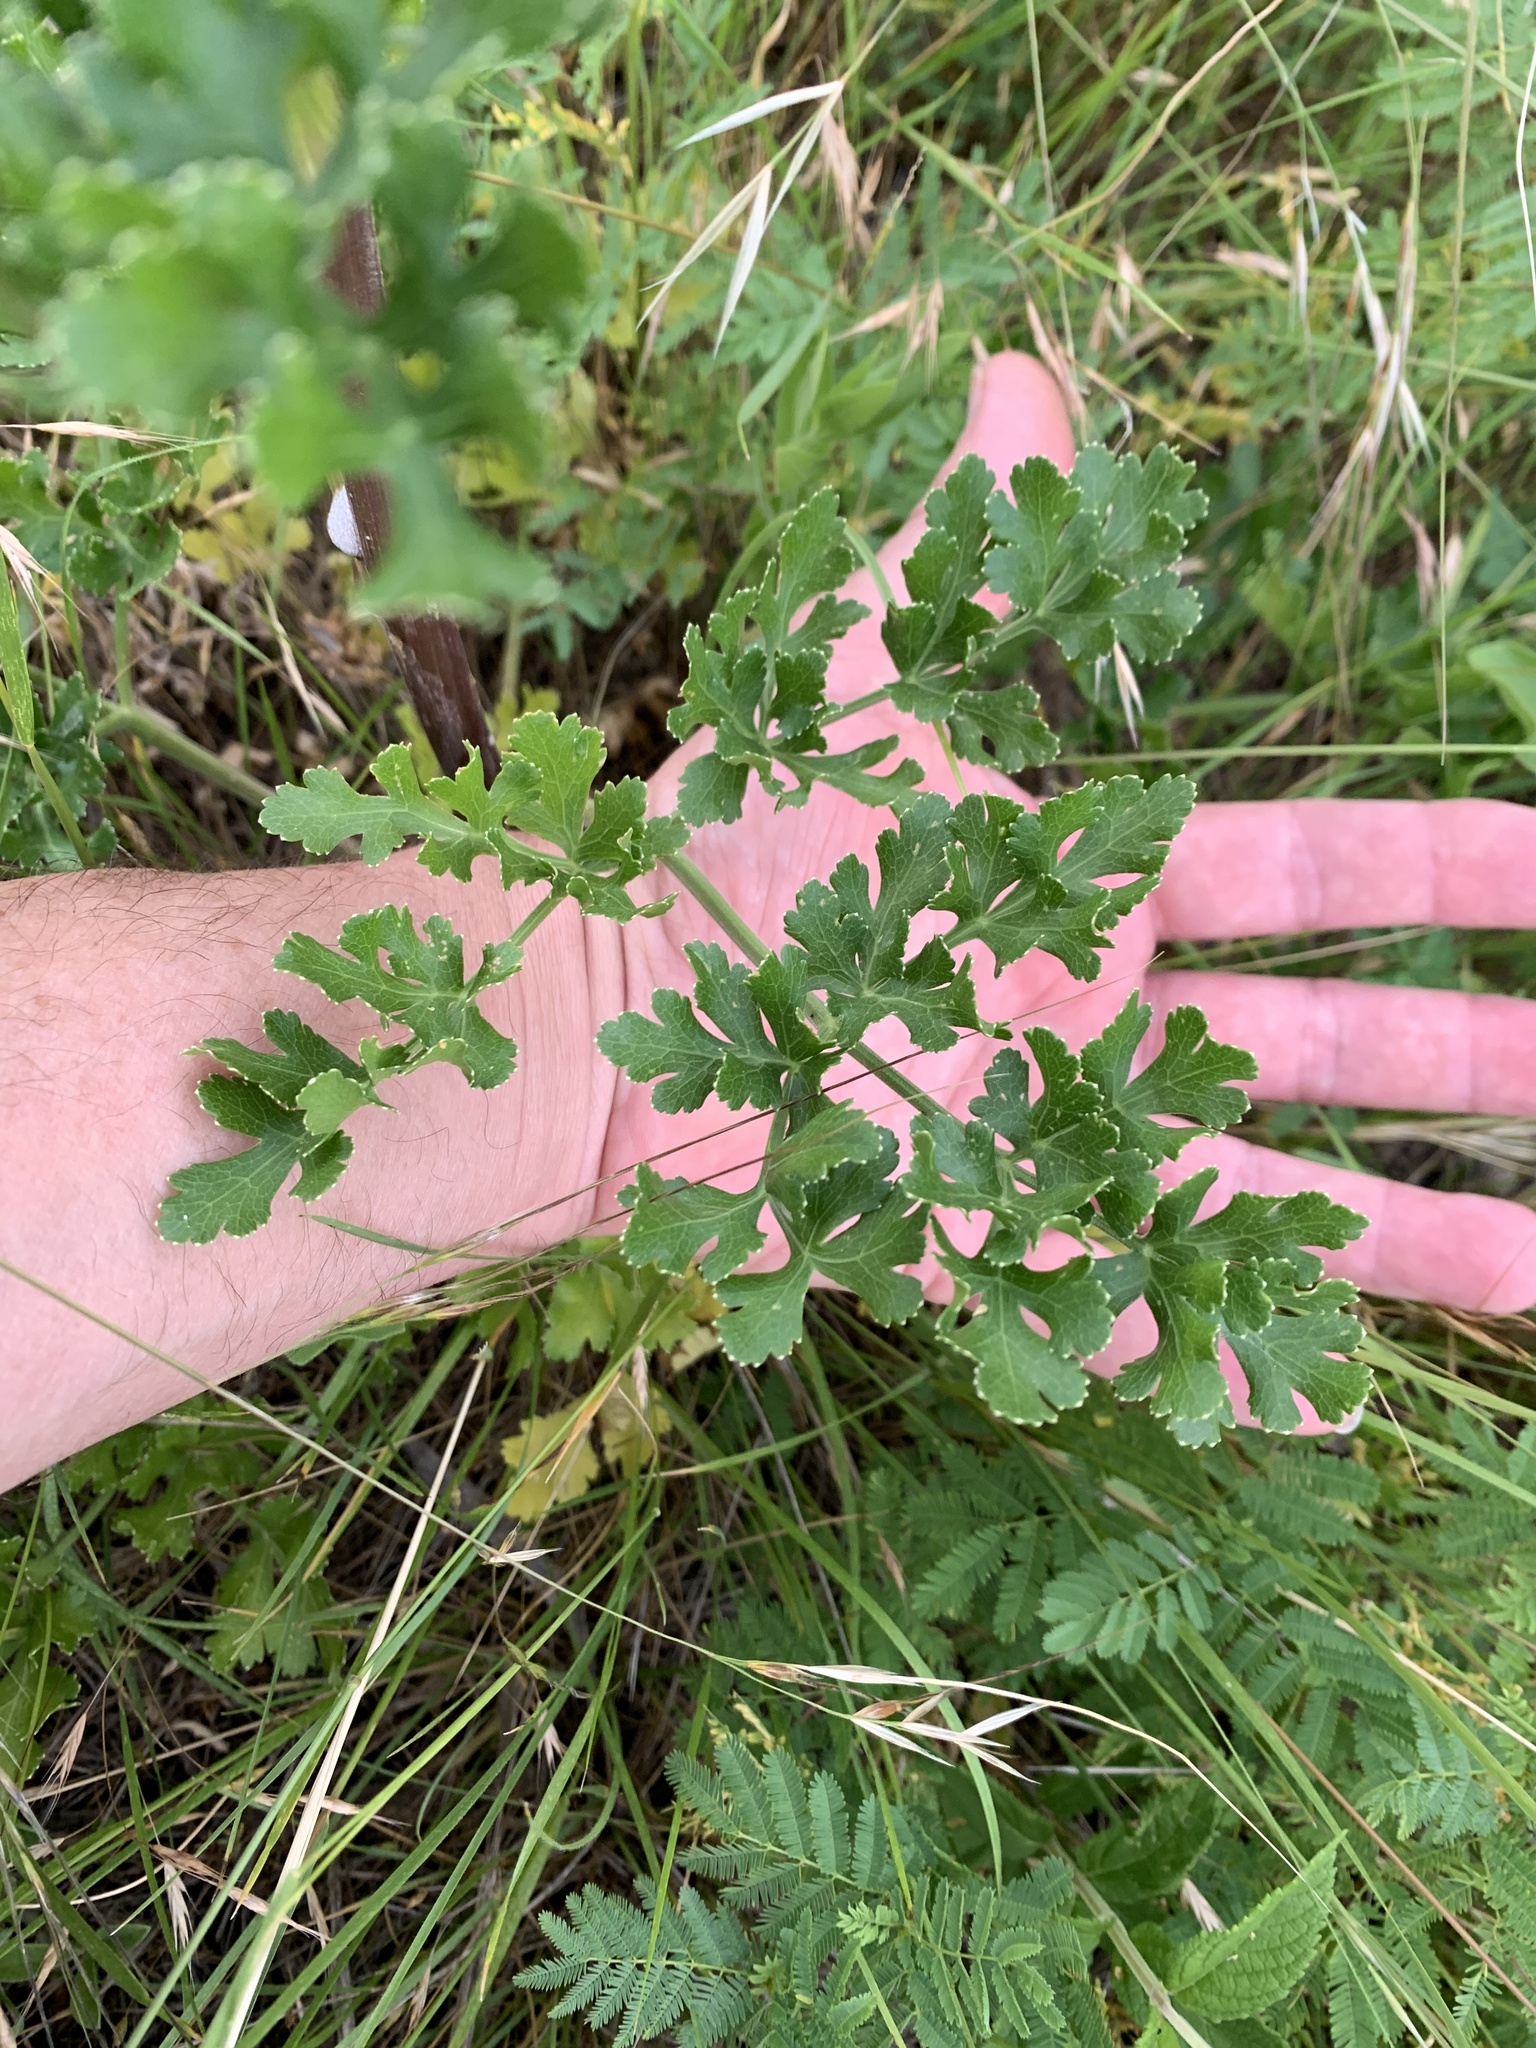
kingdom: Plantae
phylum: Tracheophyta
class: Magnoliopsida
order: Apiales
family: Apiaceae
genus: Polytaenia
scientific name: Polytaenia texana
